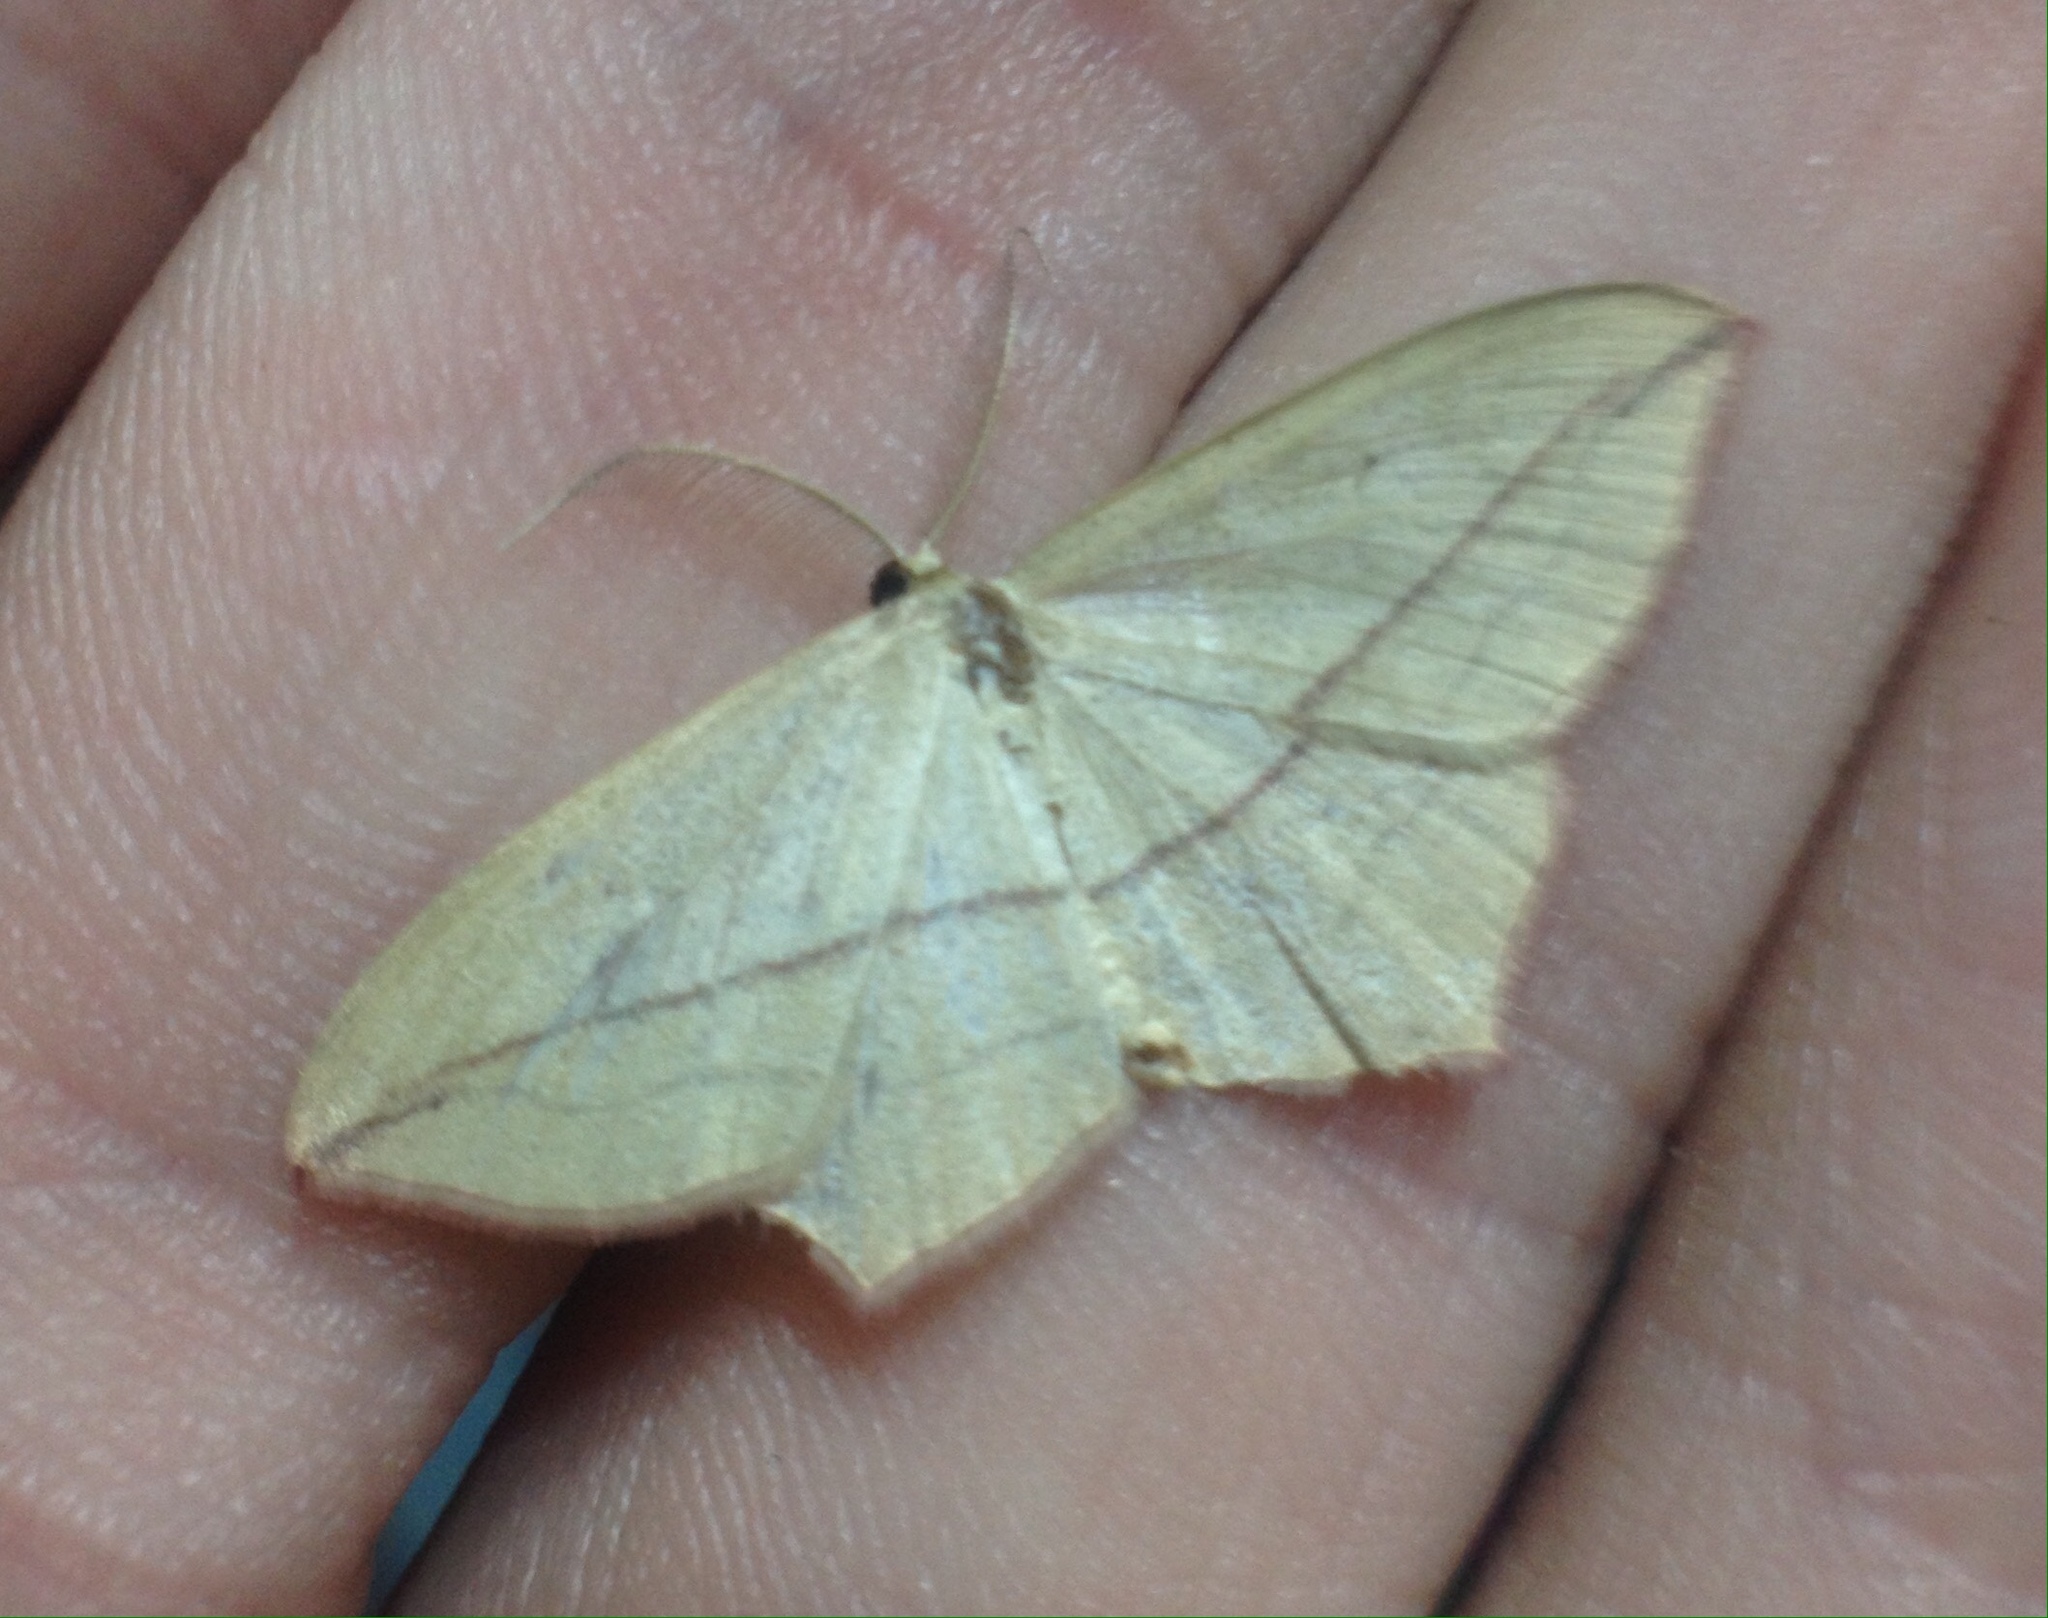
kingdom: Animalia
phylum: Arthropoda
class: Insecta
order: Lepidoptera
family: Geometridae
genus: Timandra
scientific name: Timandra comae
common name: Blood-vein
